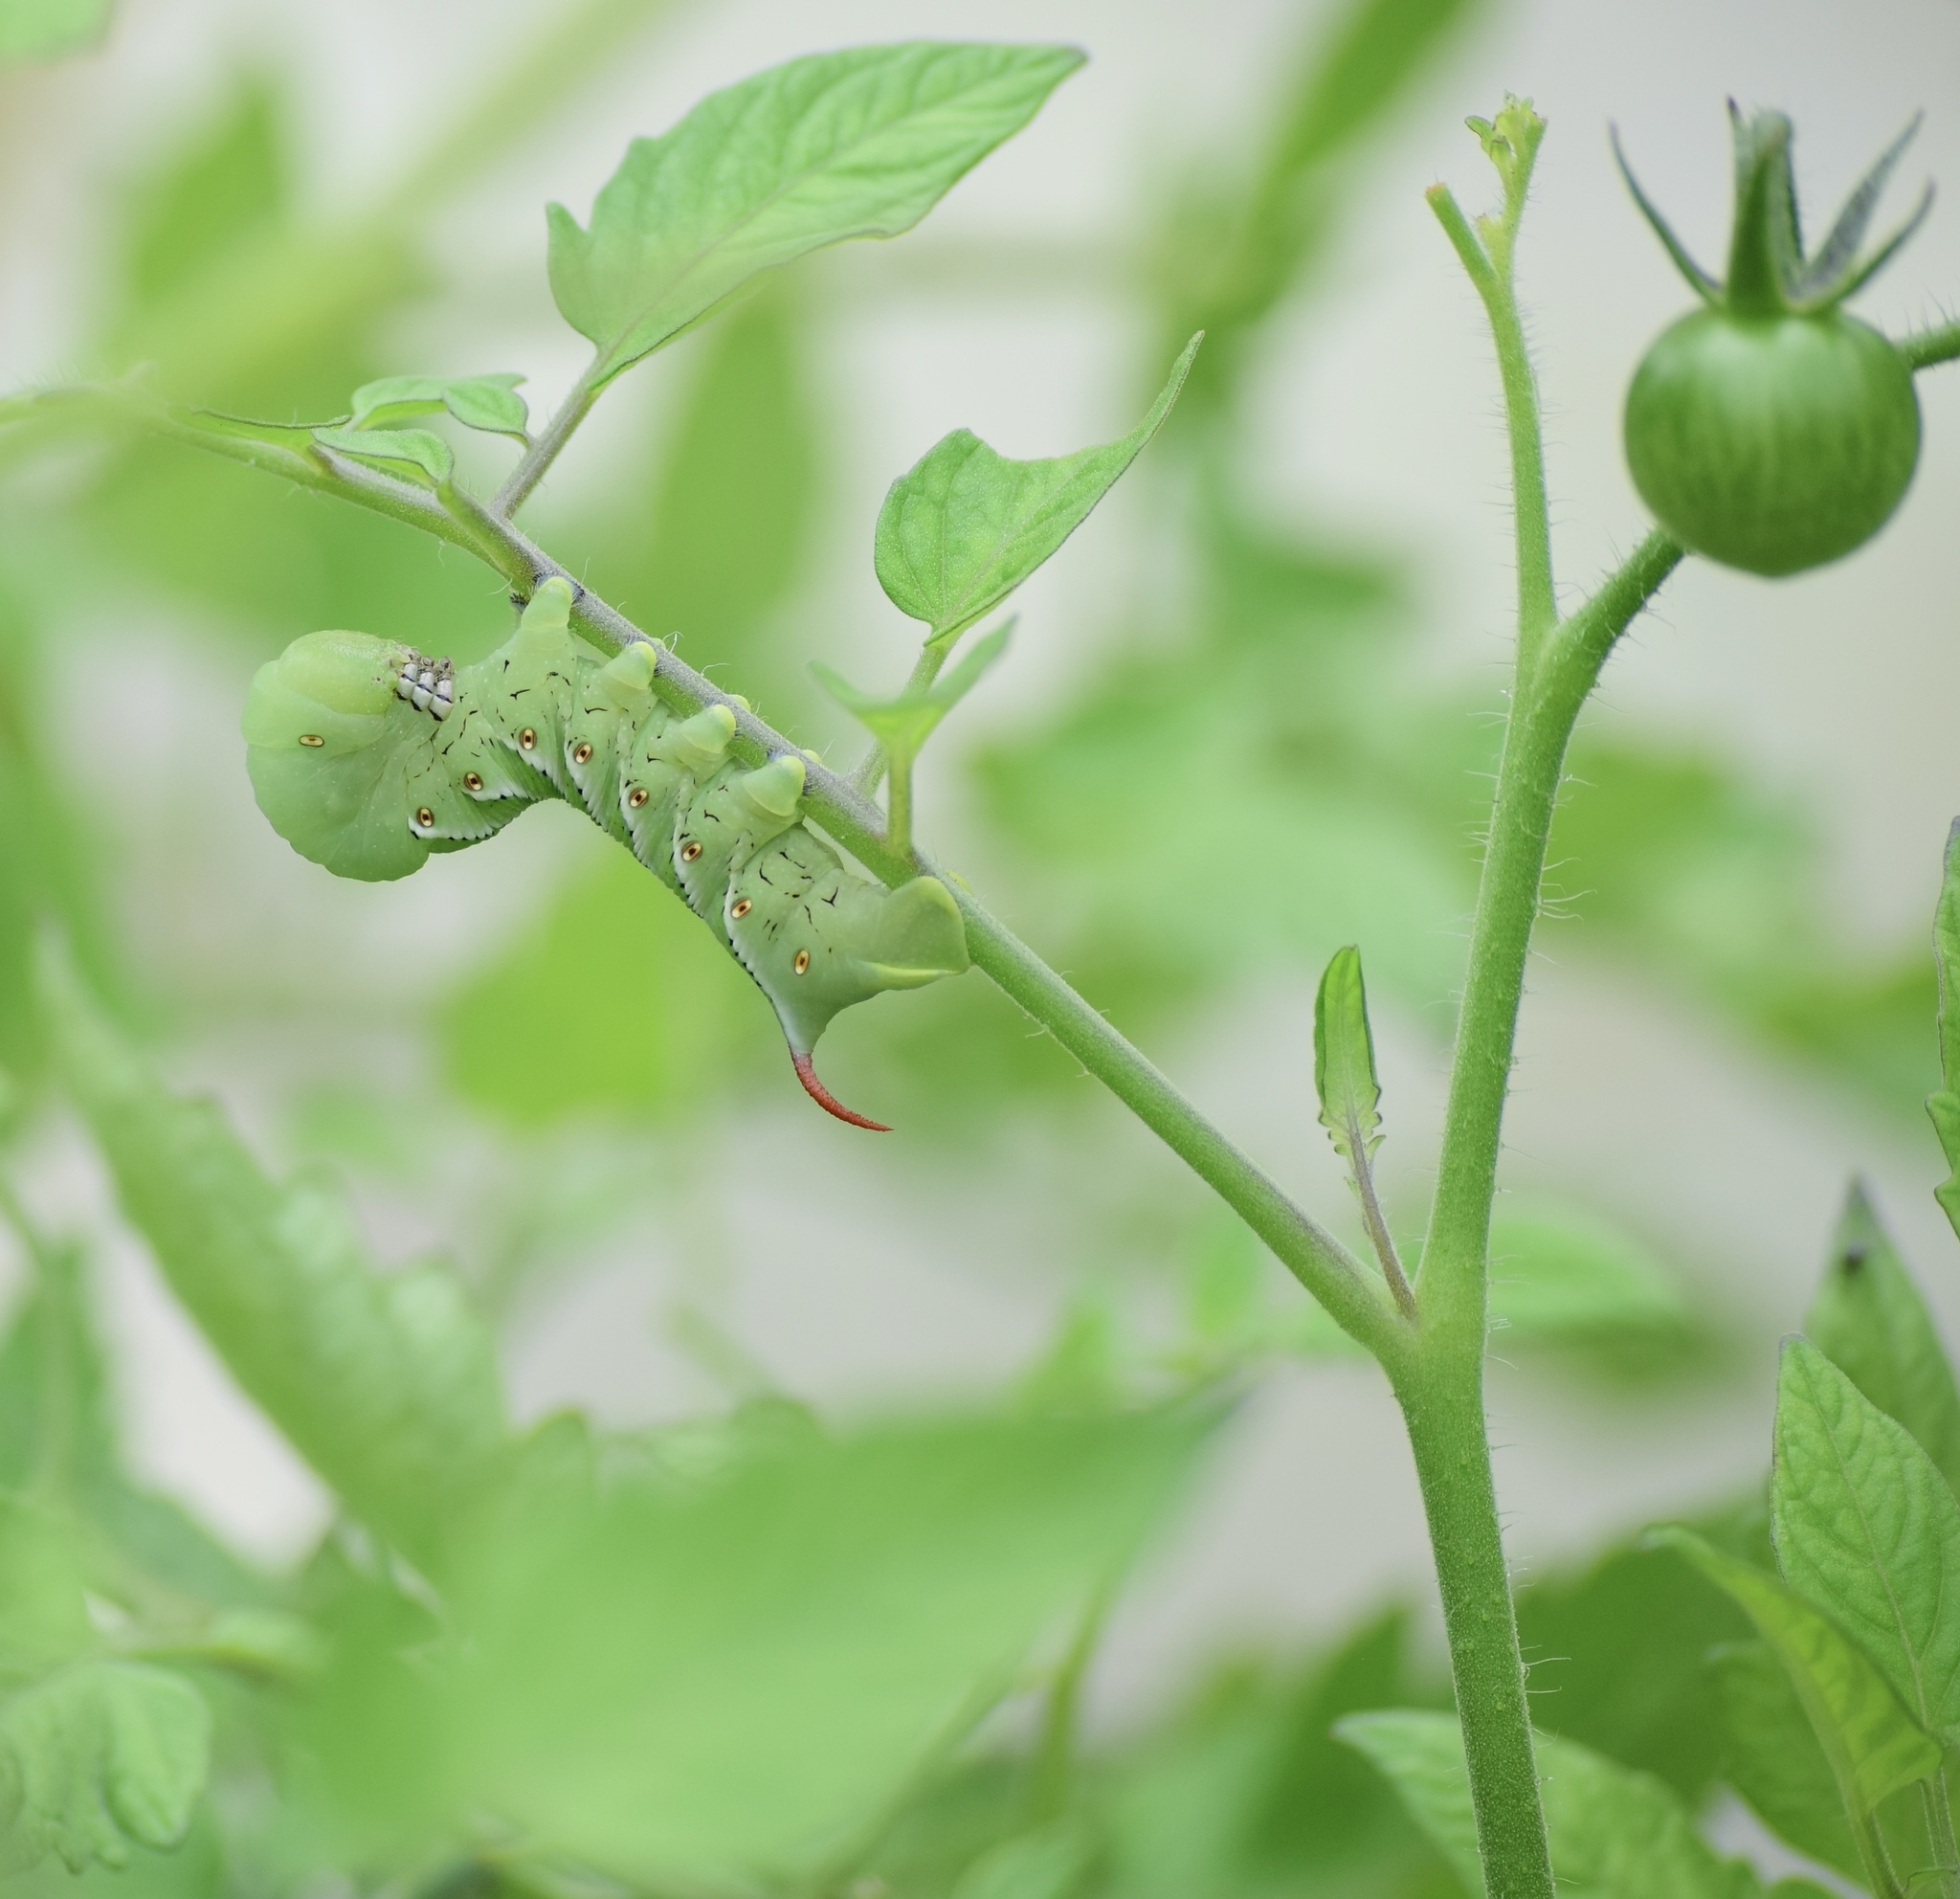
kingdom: Animalia
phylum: Arthropoda
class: Insecta
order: Lepidoptera
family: Sphingidae
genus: Manduca
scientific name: Manduca sexta
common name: Carolina sphinx
